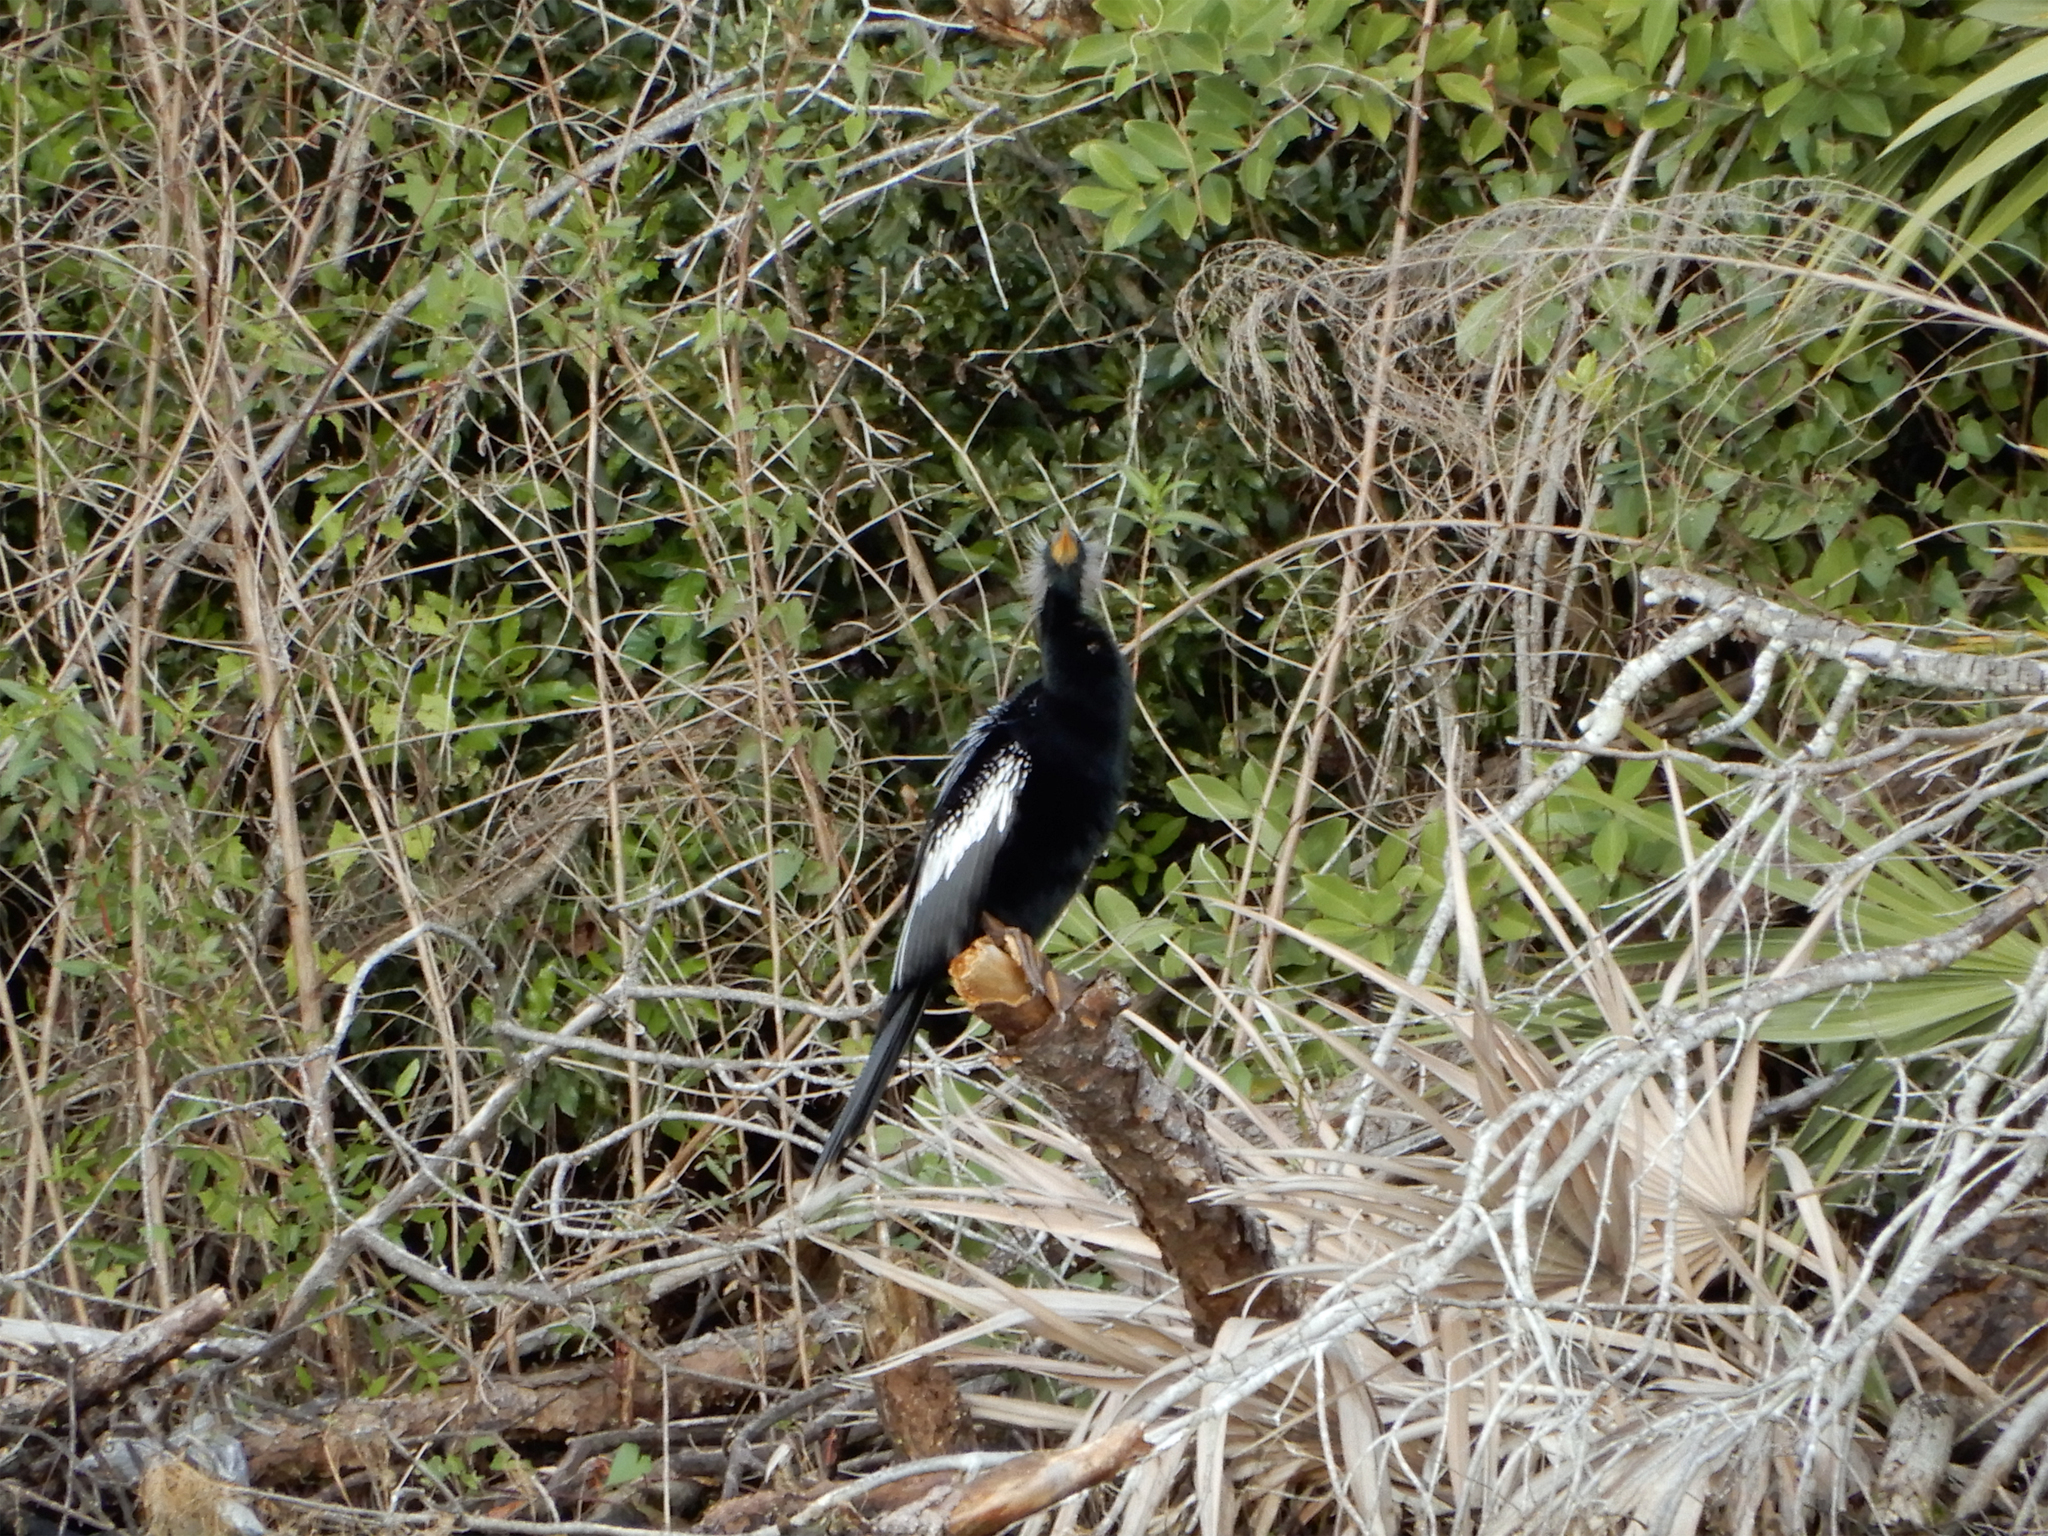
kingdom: Animalia
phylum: Chordata
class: Aves
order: Suliformes
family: Anhingidae
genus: Anhinga
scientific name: Anhinga anhinga
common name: Anhinga
